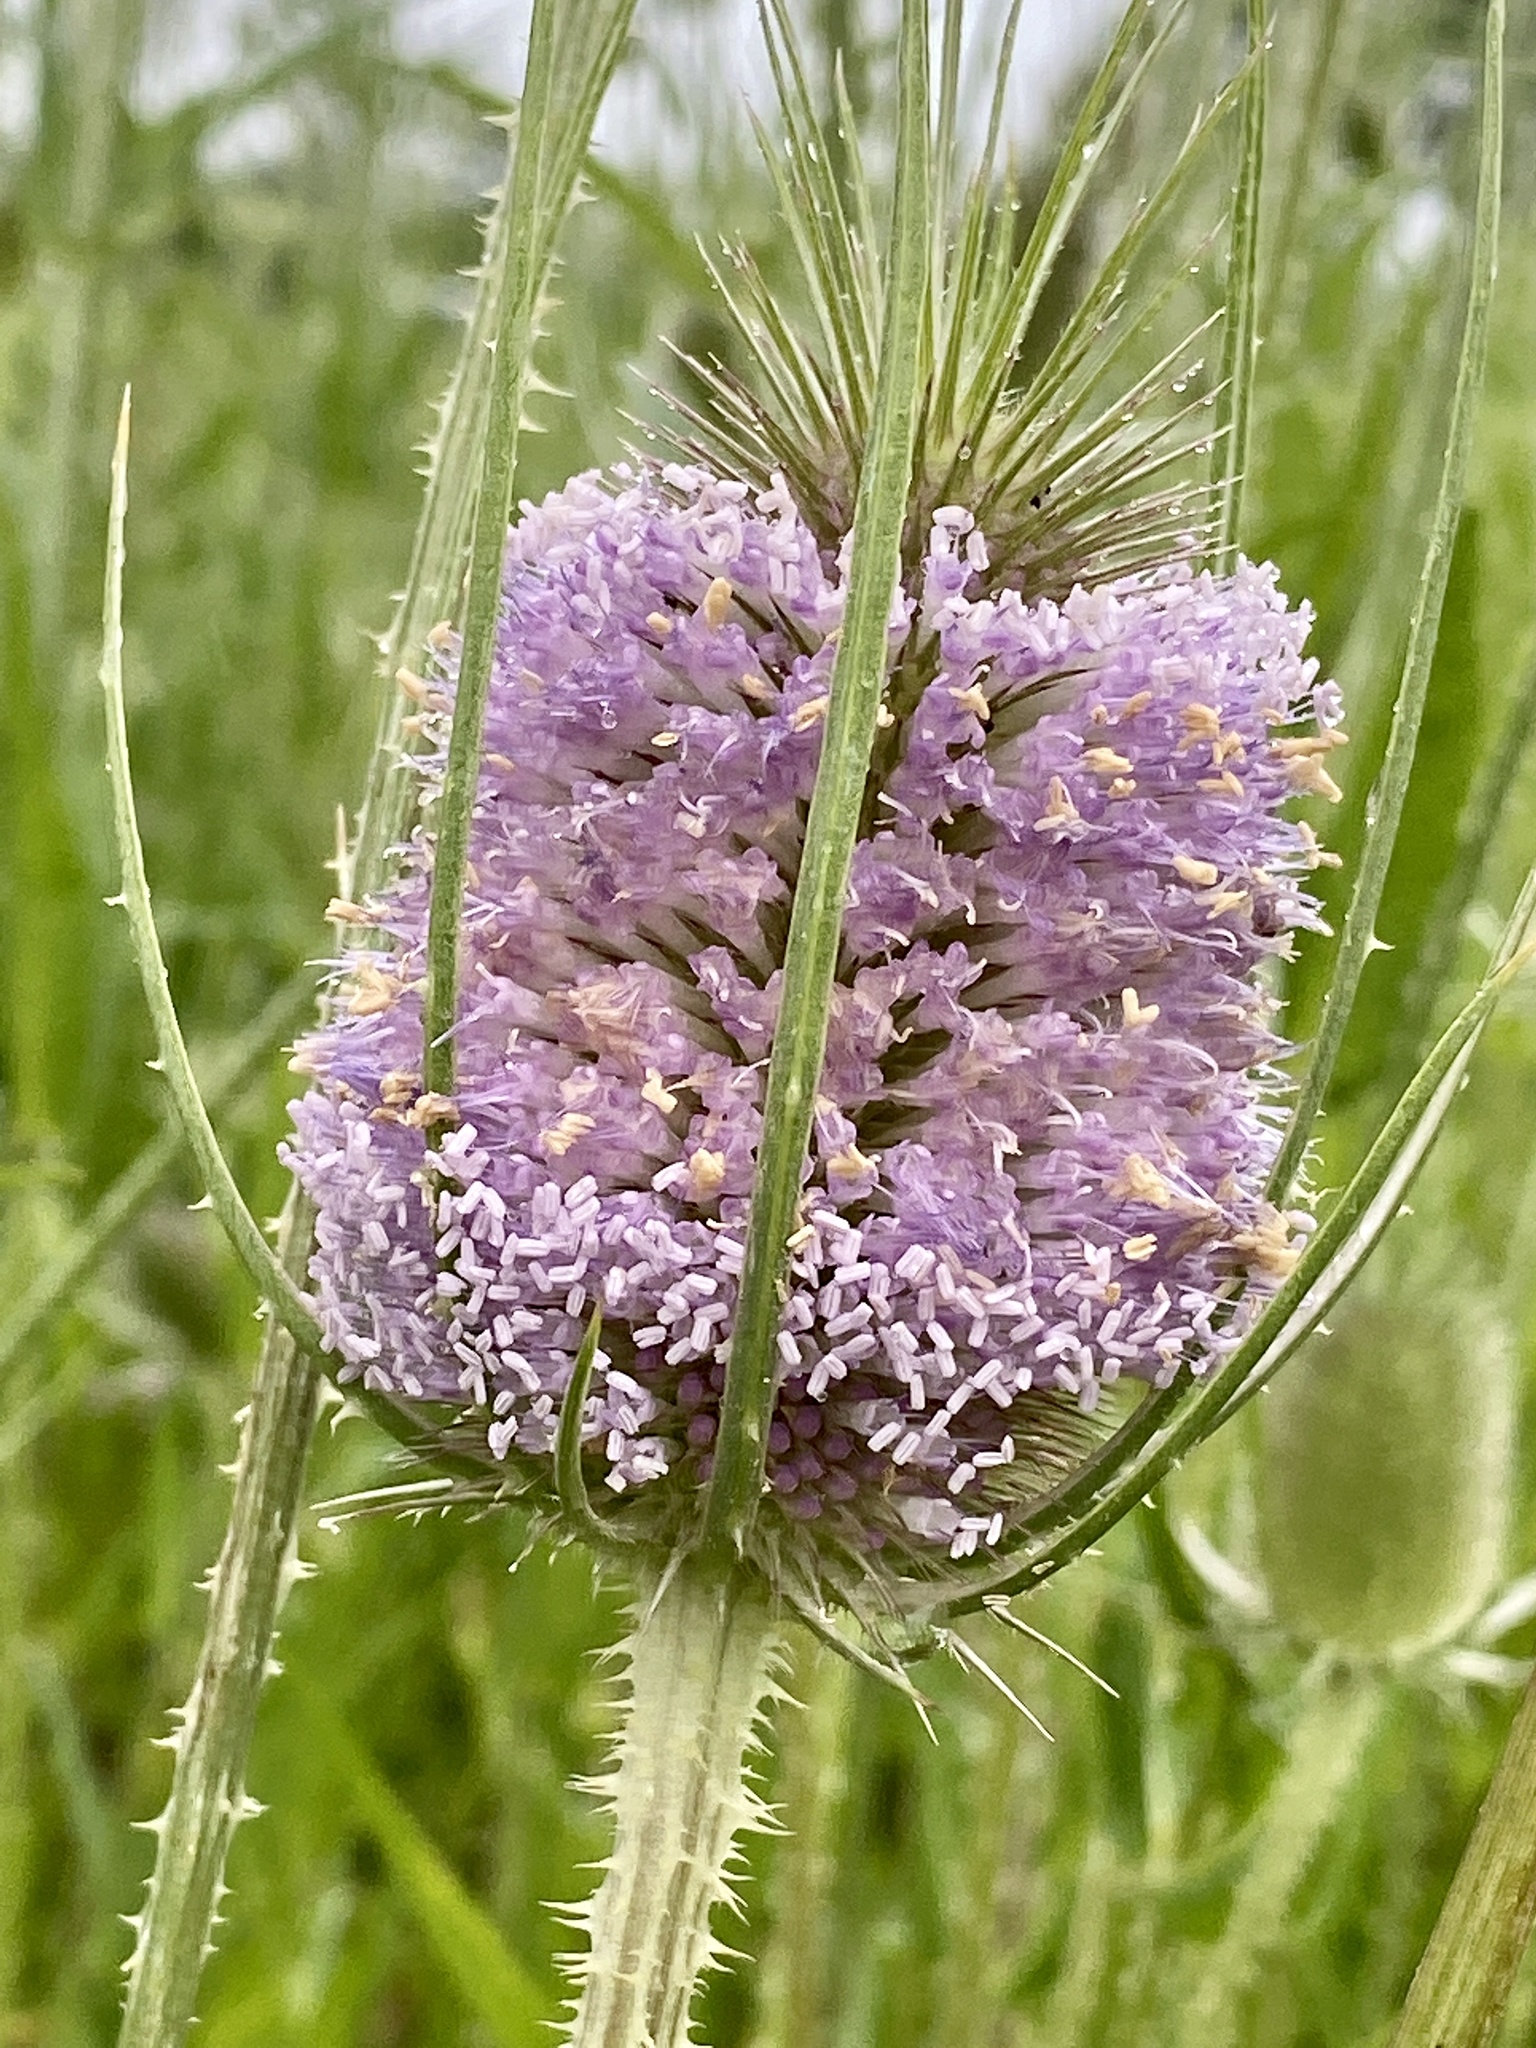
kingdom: Plantae
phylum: Tracheophyta
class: Magnoliopsida
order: Dipsacales
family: Caprifoliaceae
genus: Dipsacus
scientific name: Dipsacus fullonum
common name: Teasel
